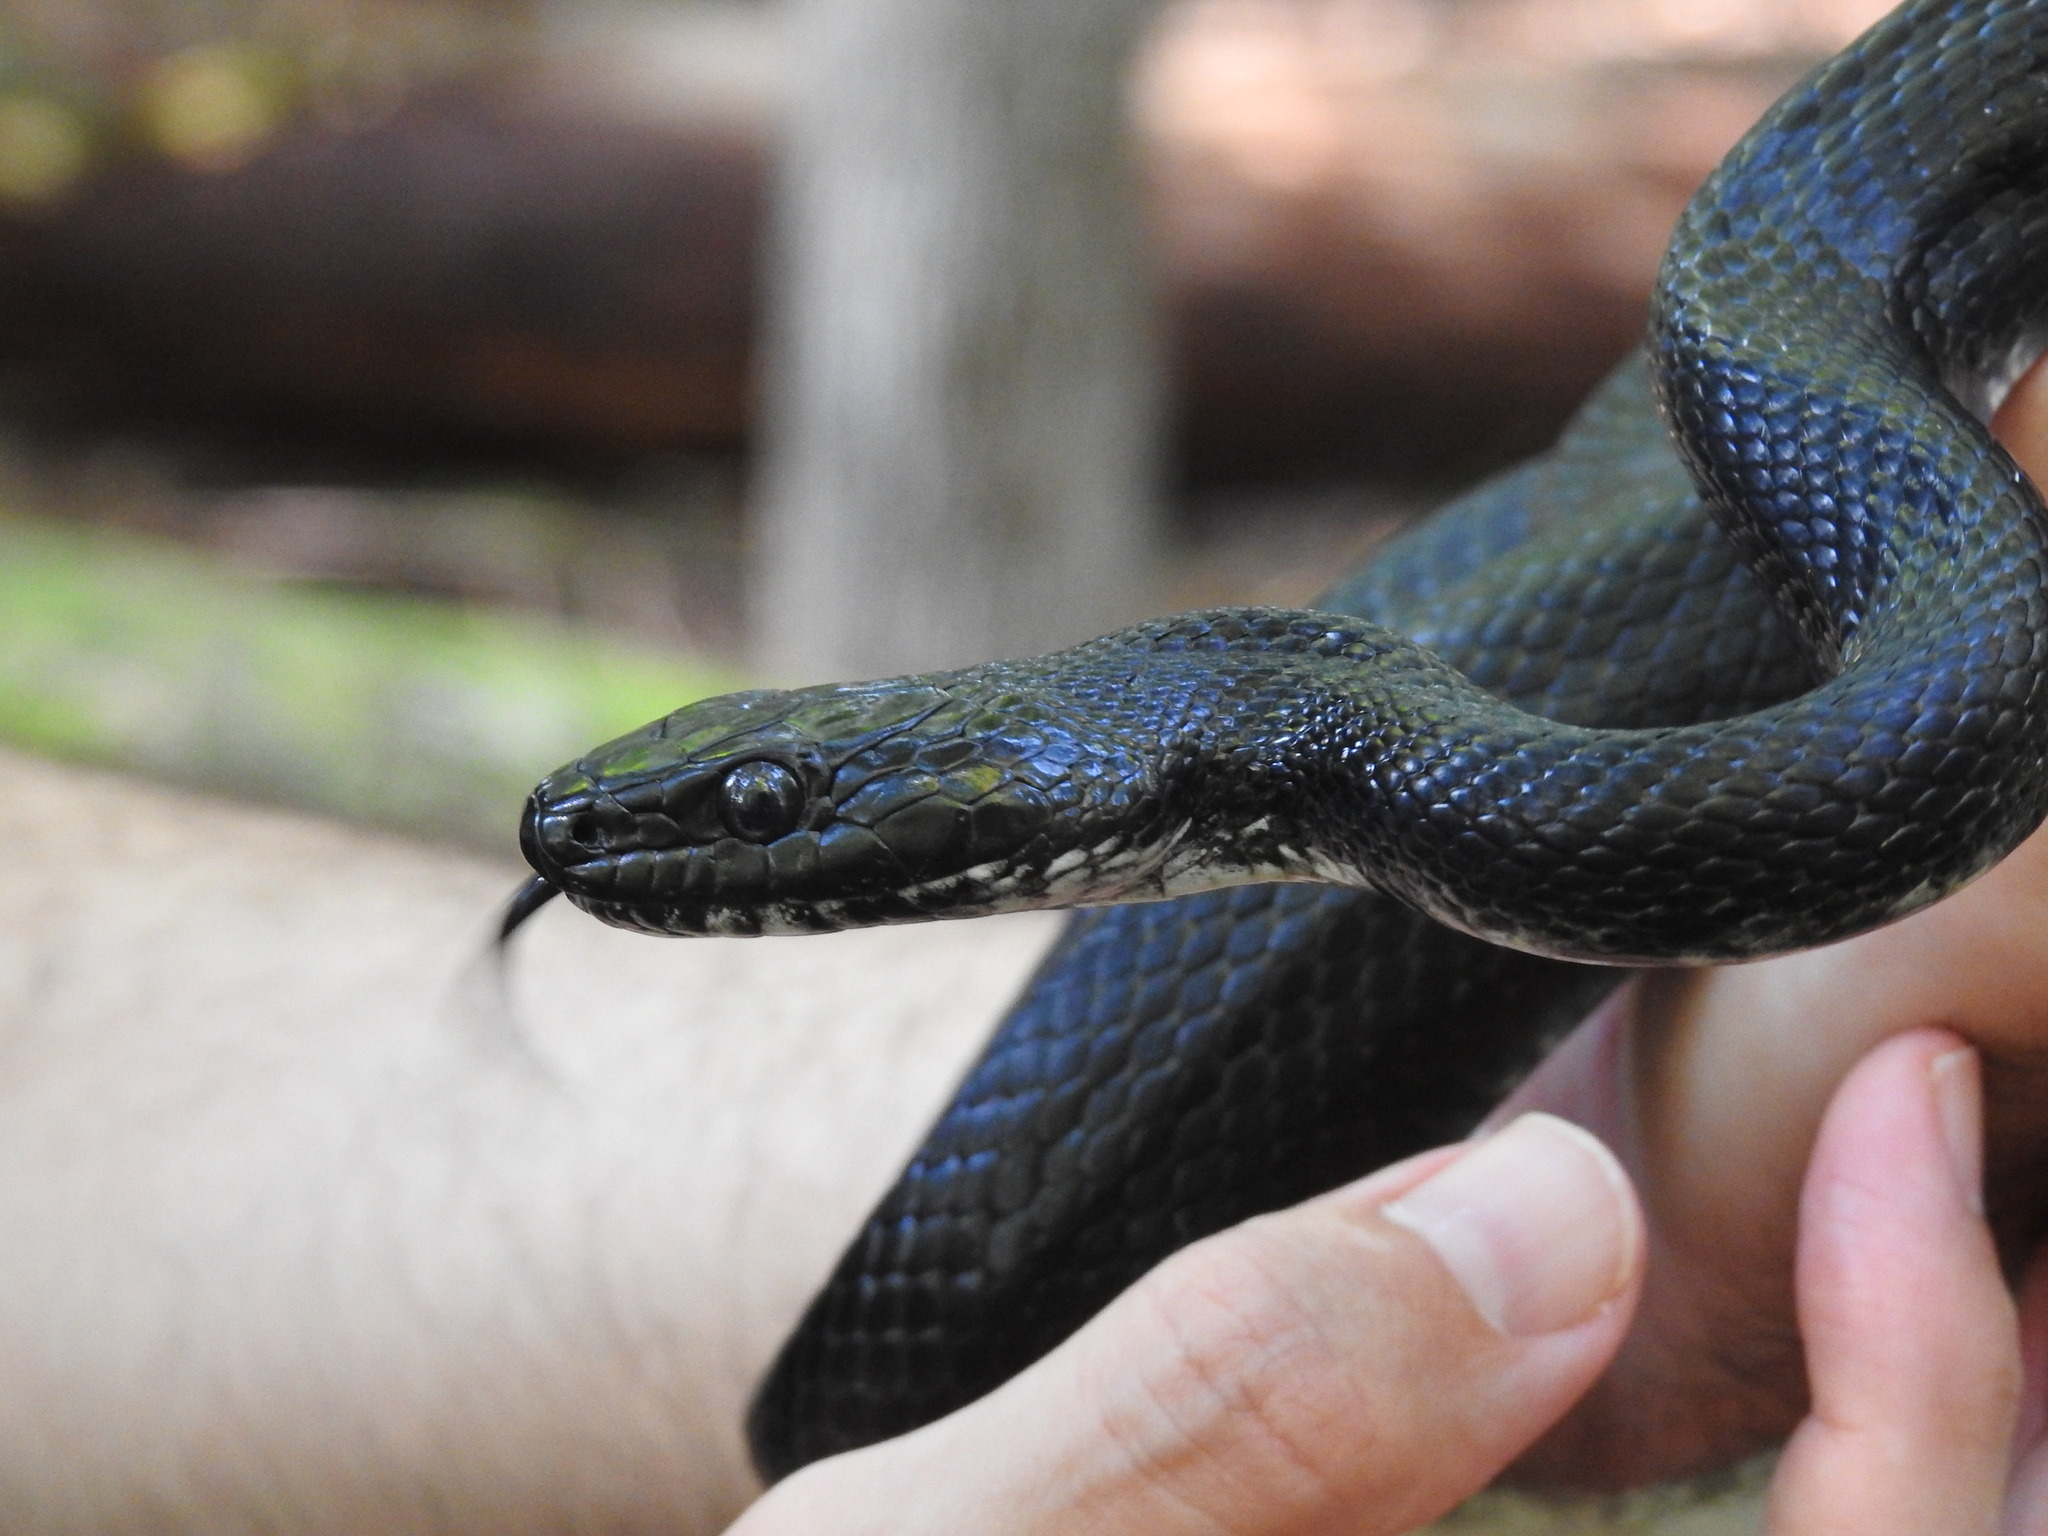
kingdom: Animalia
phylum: Chordata
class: Squamata
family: Colubridae
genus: Pantherophis
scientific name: Pantherophis
